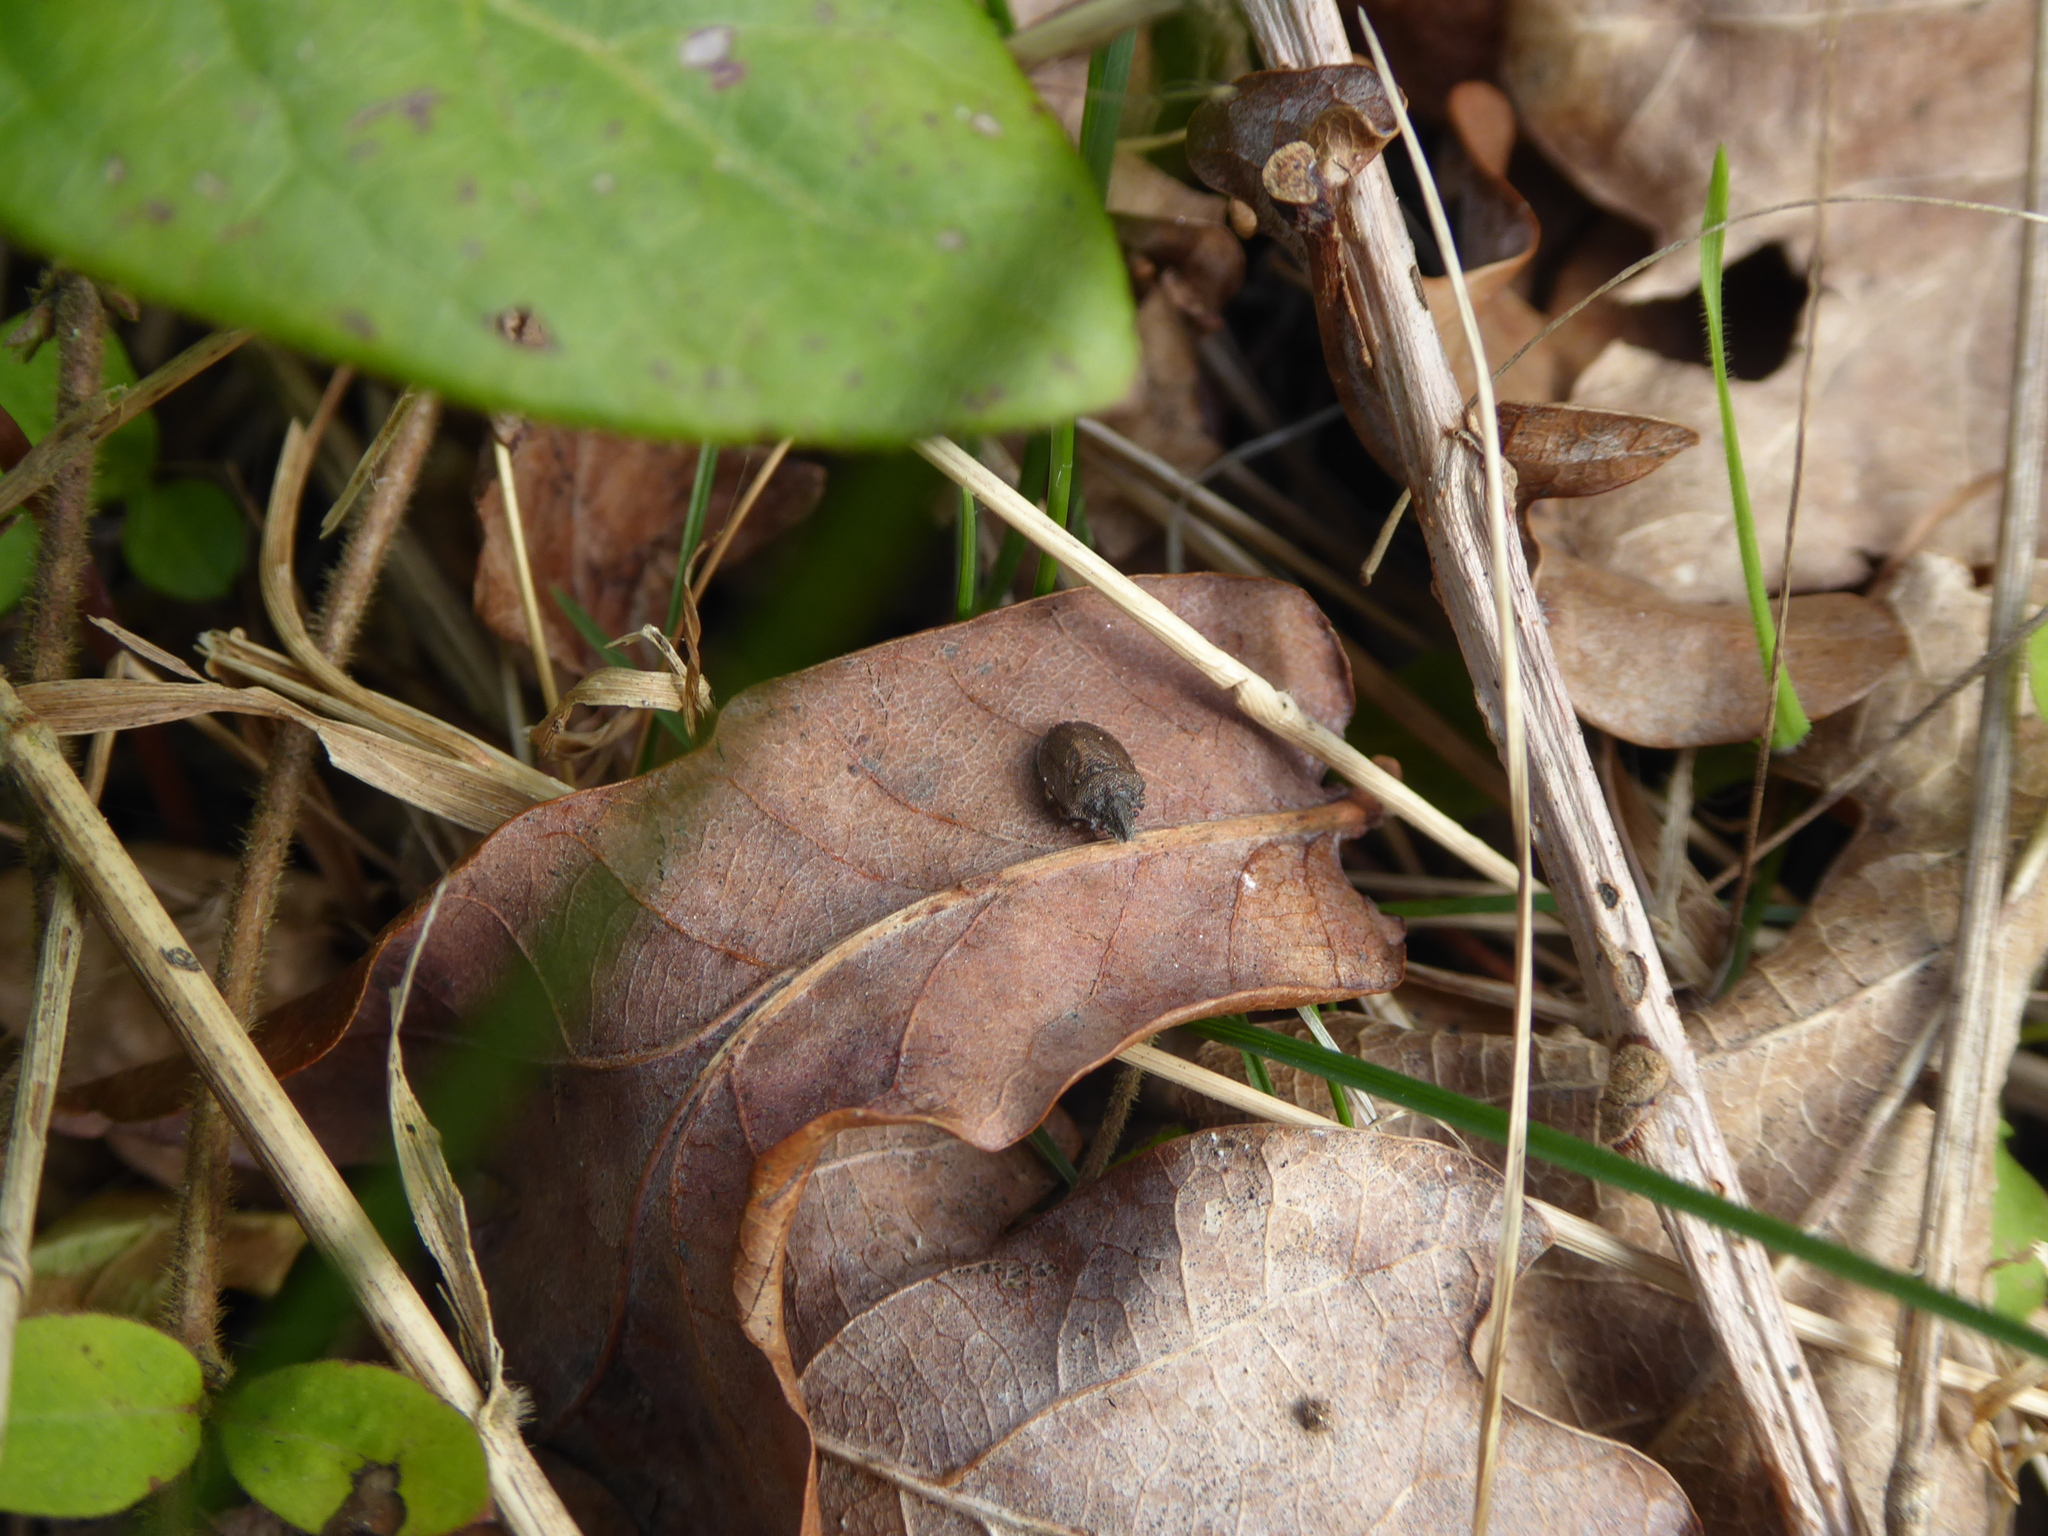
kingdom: Animalia
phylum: Arthropoda
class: Insecta
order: Hemiptera
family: Pentatomidae
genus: Podops
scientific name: Podops inunctus
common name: Turtle bug
